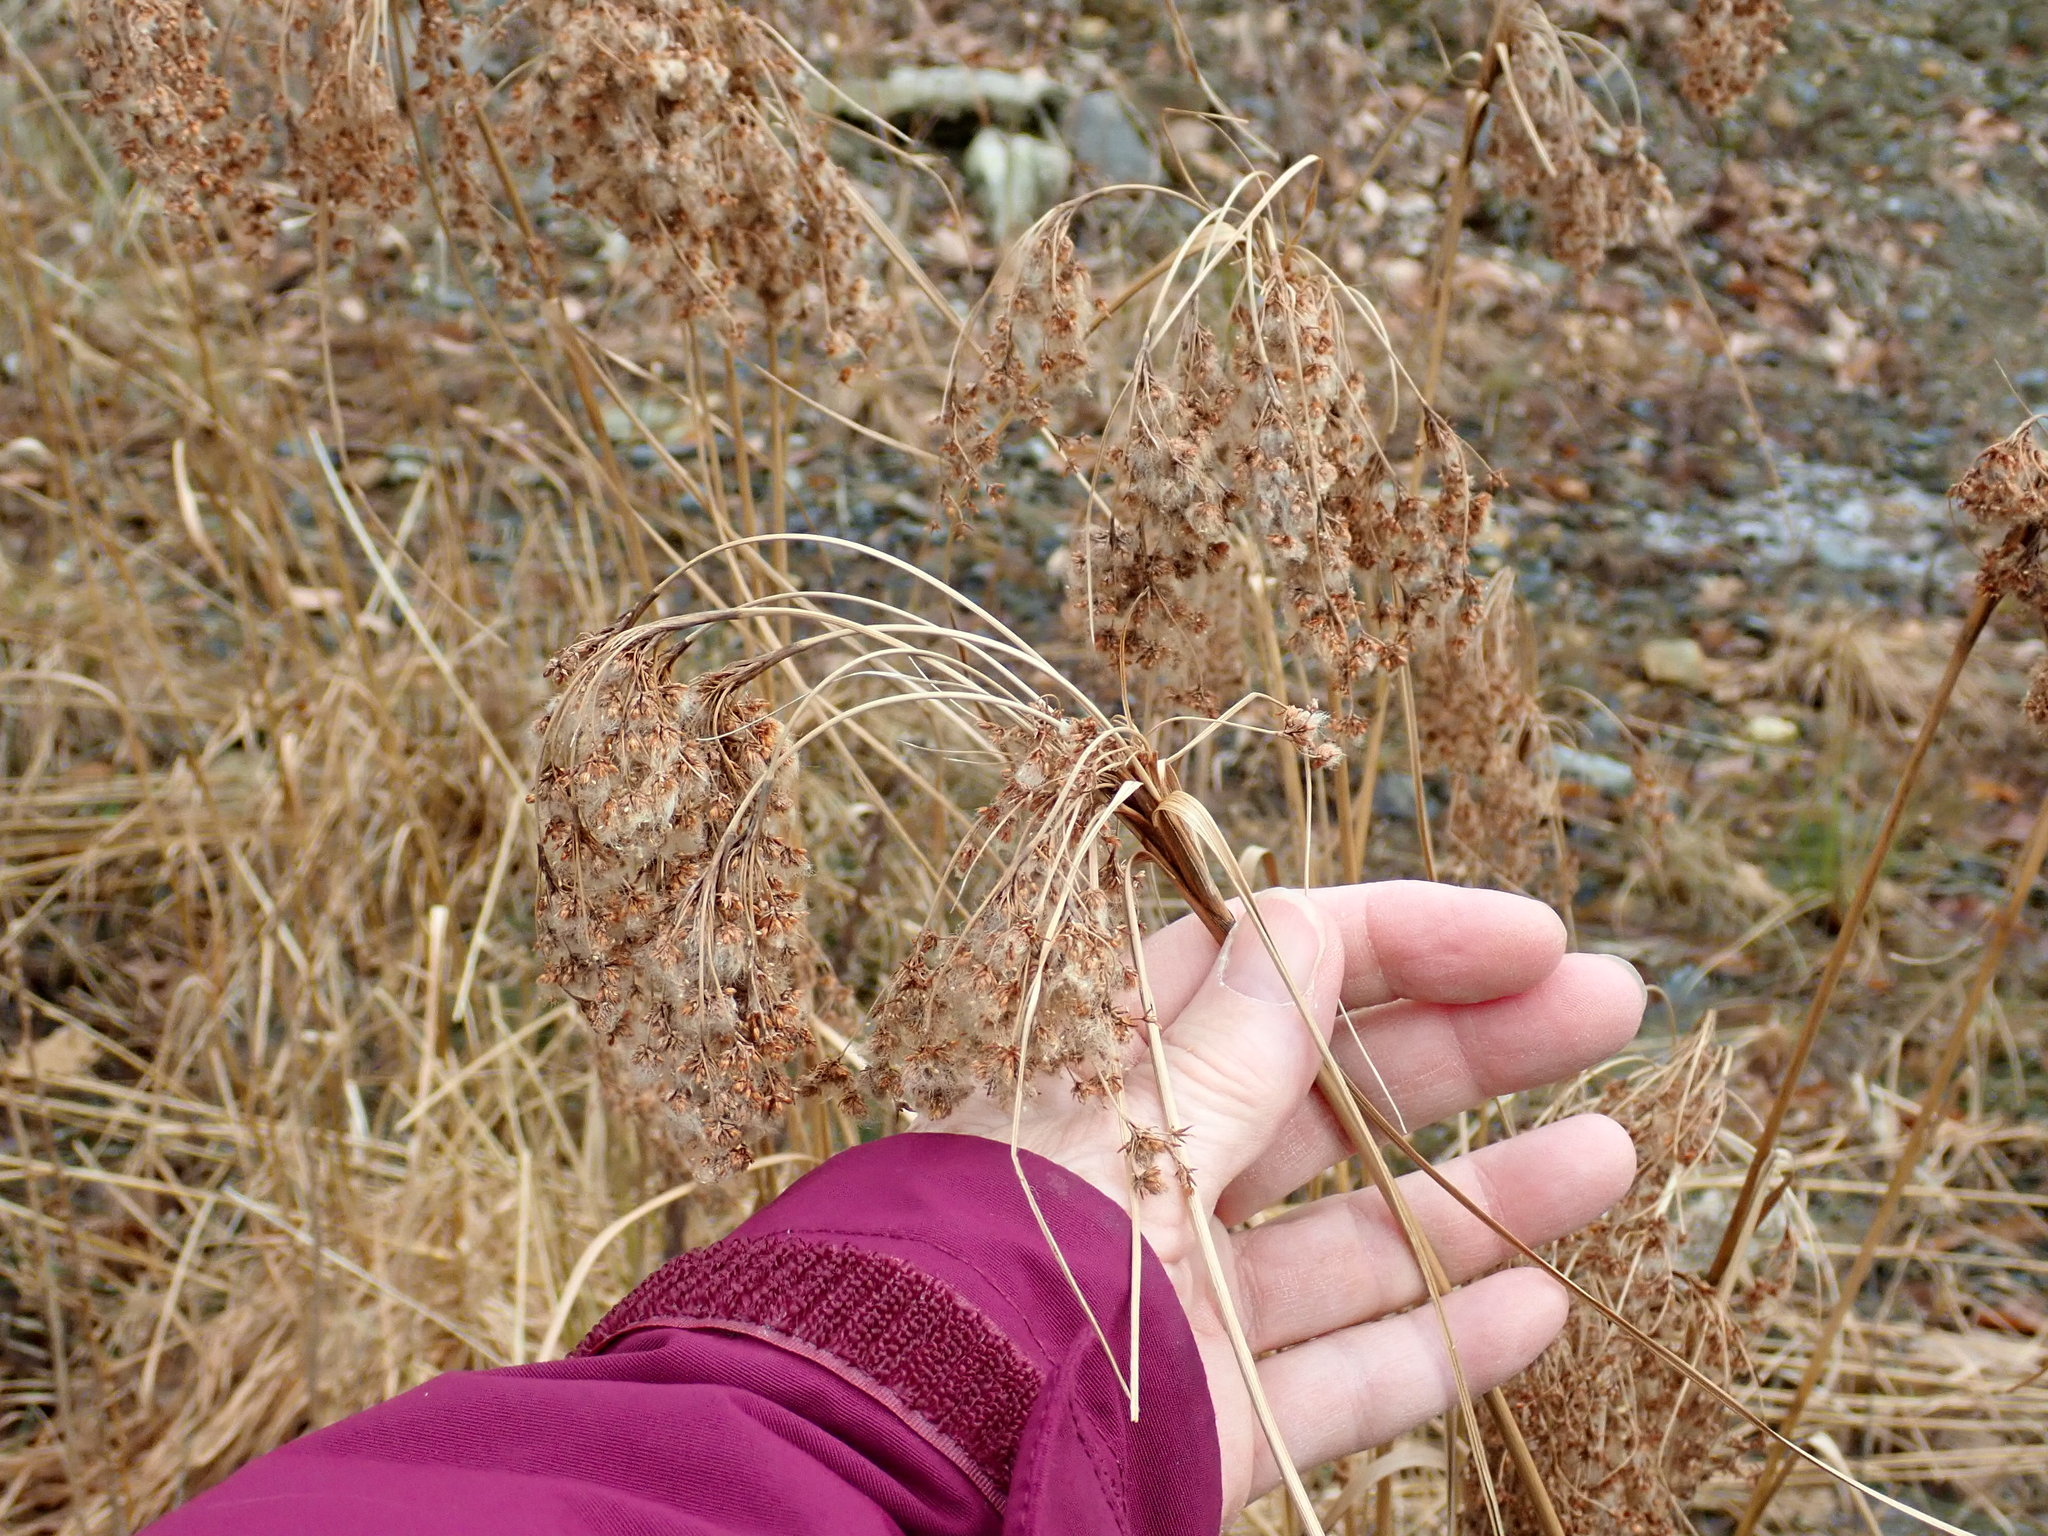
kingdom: Plantae
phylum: Tracheophyta
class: Liliopsida
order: Poales
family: Cyperaceae
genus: Scirpus
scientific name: Scirpus
